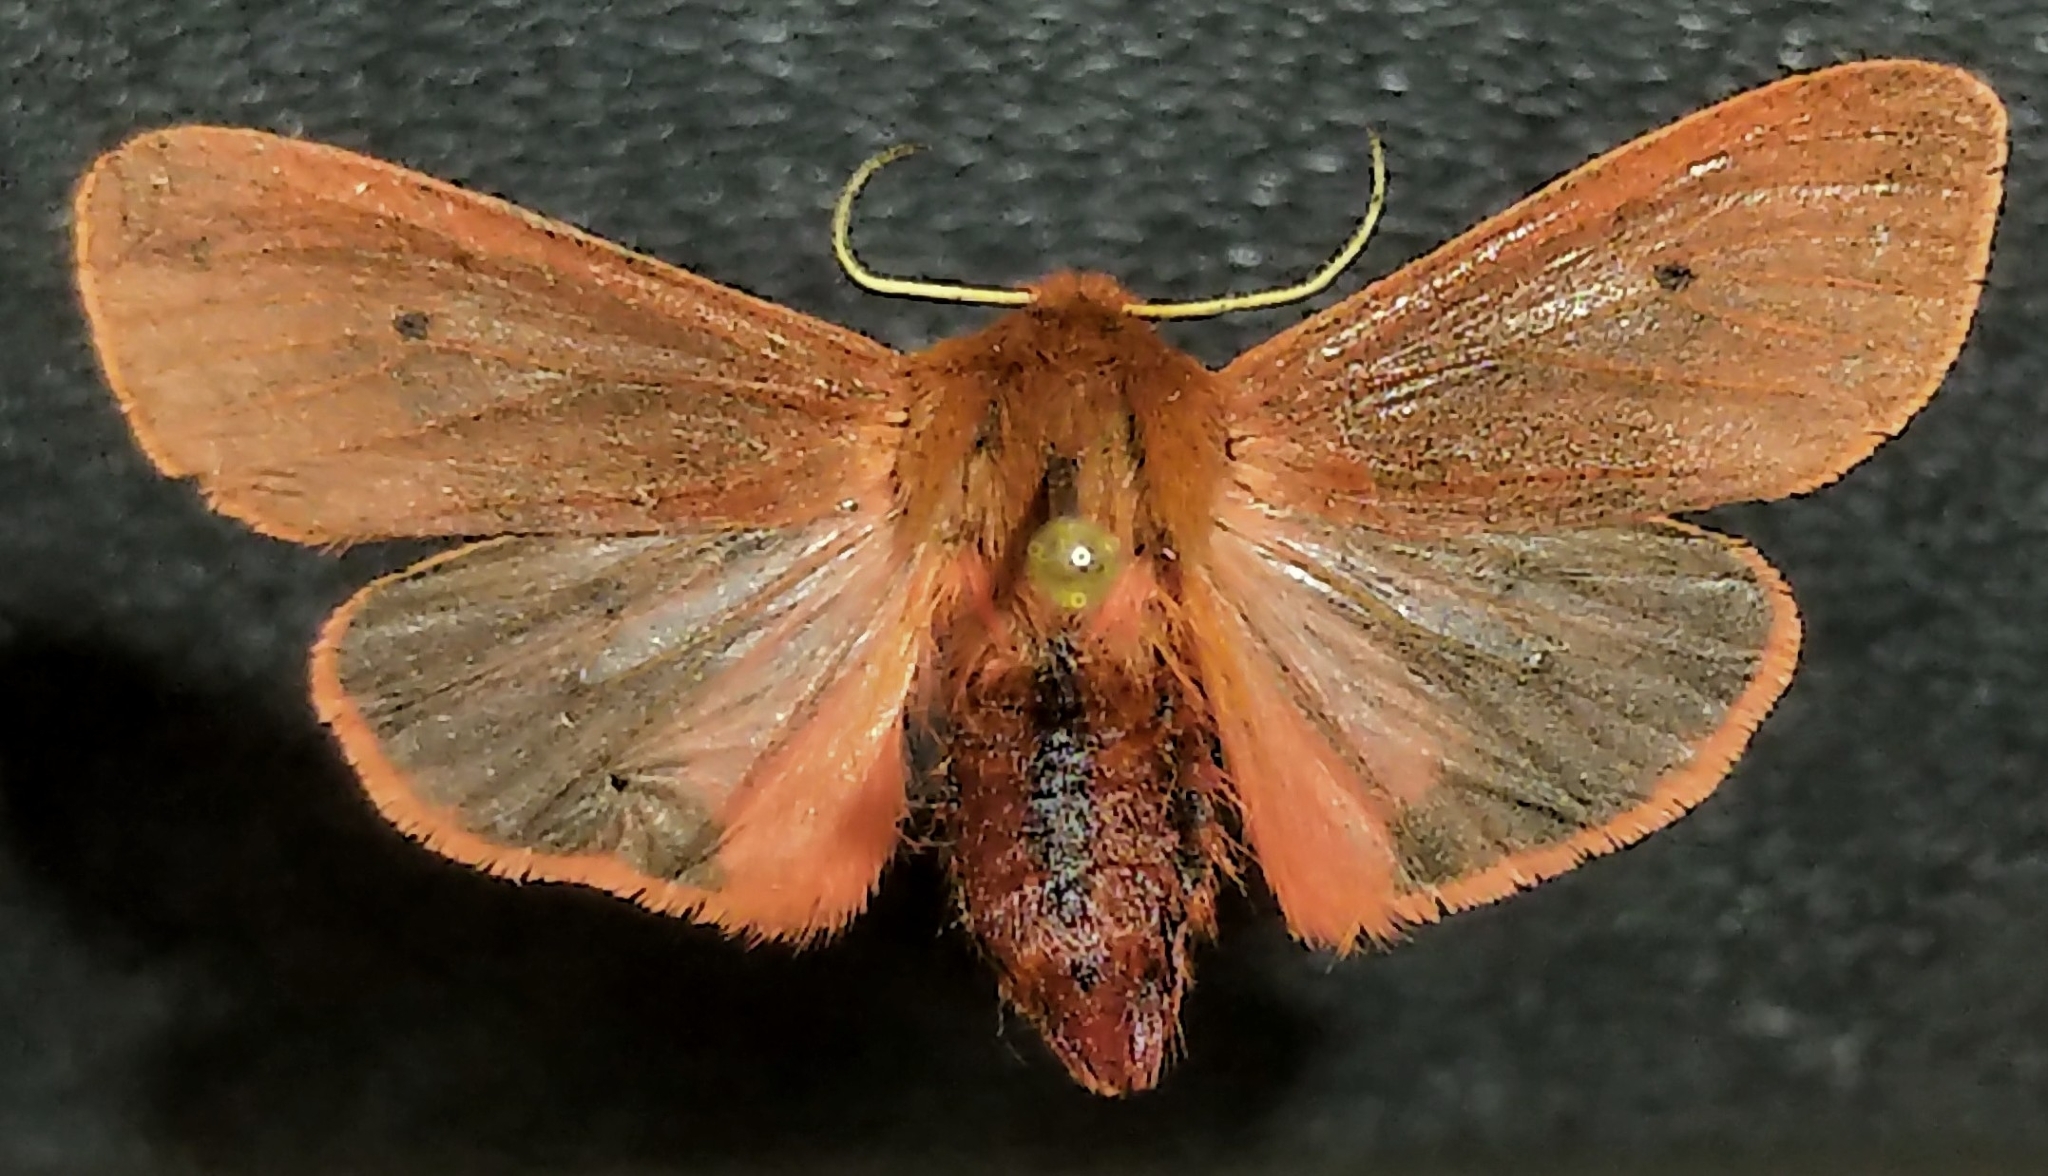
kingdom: Animalia
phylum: Arthropoda
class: Insecta
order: Lepidoptera
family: Erebidae
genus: Phragmatobia
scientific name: Phragmatobia fuliginosa
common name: Ruby tiger
